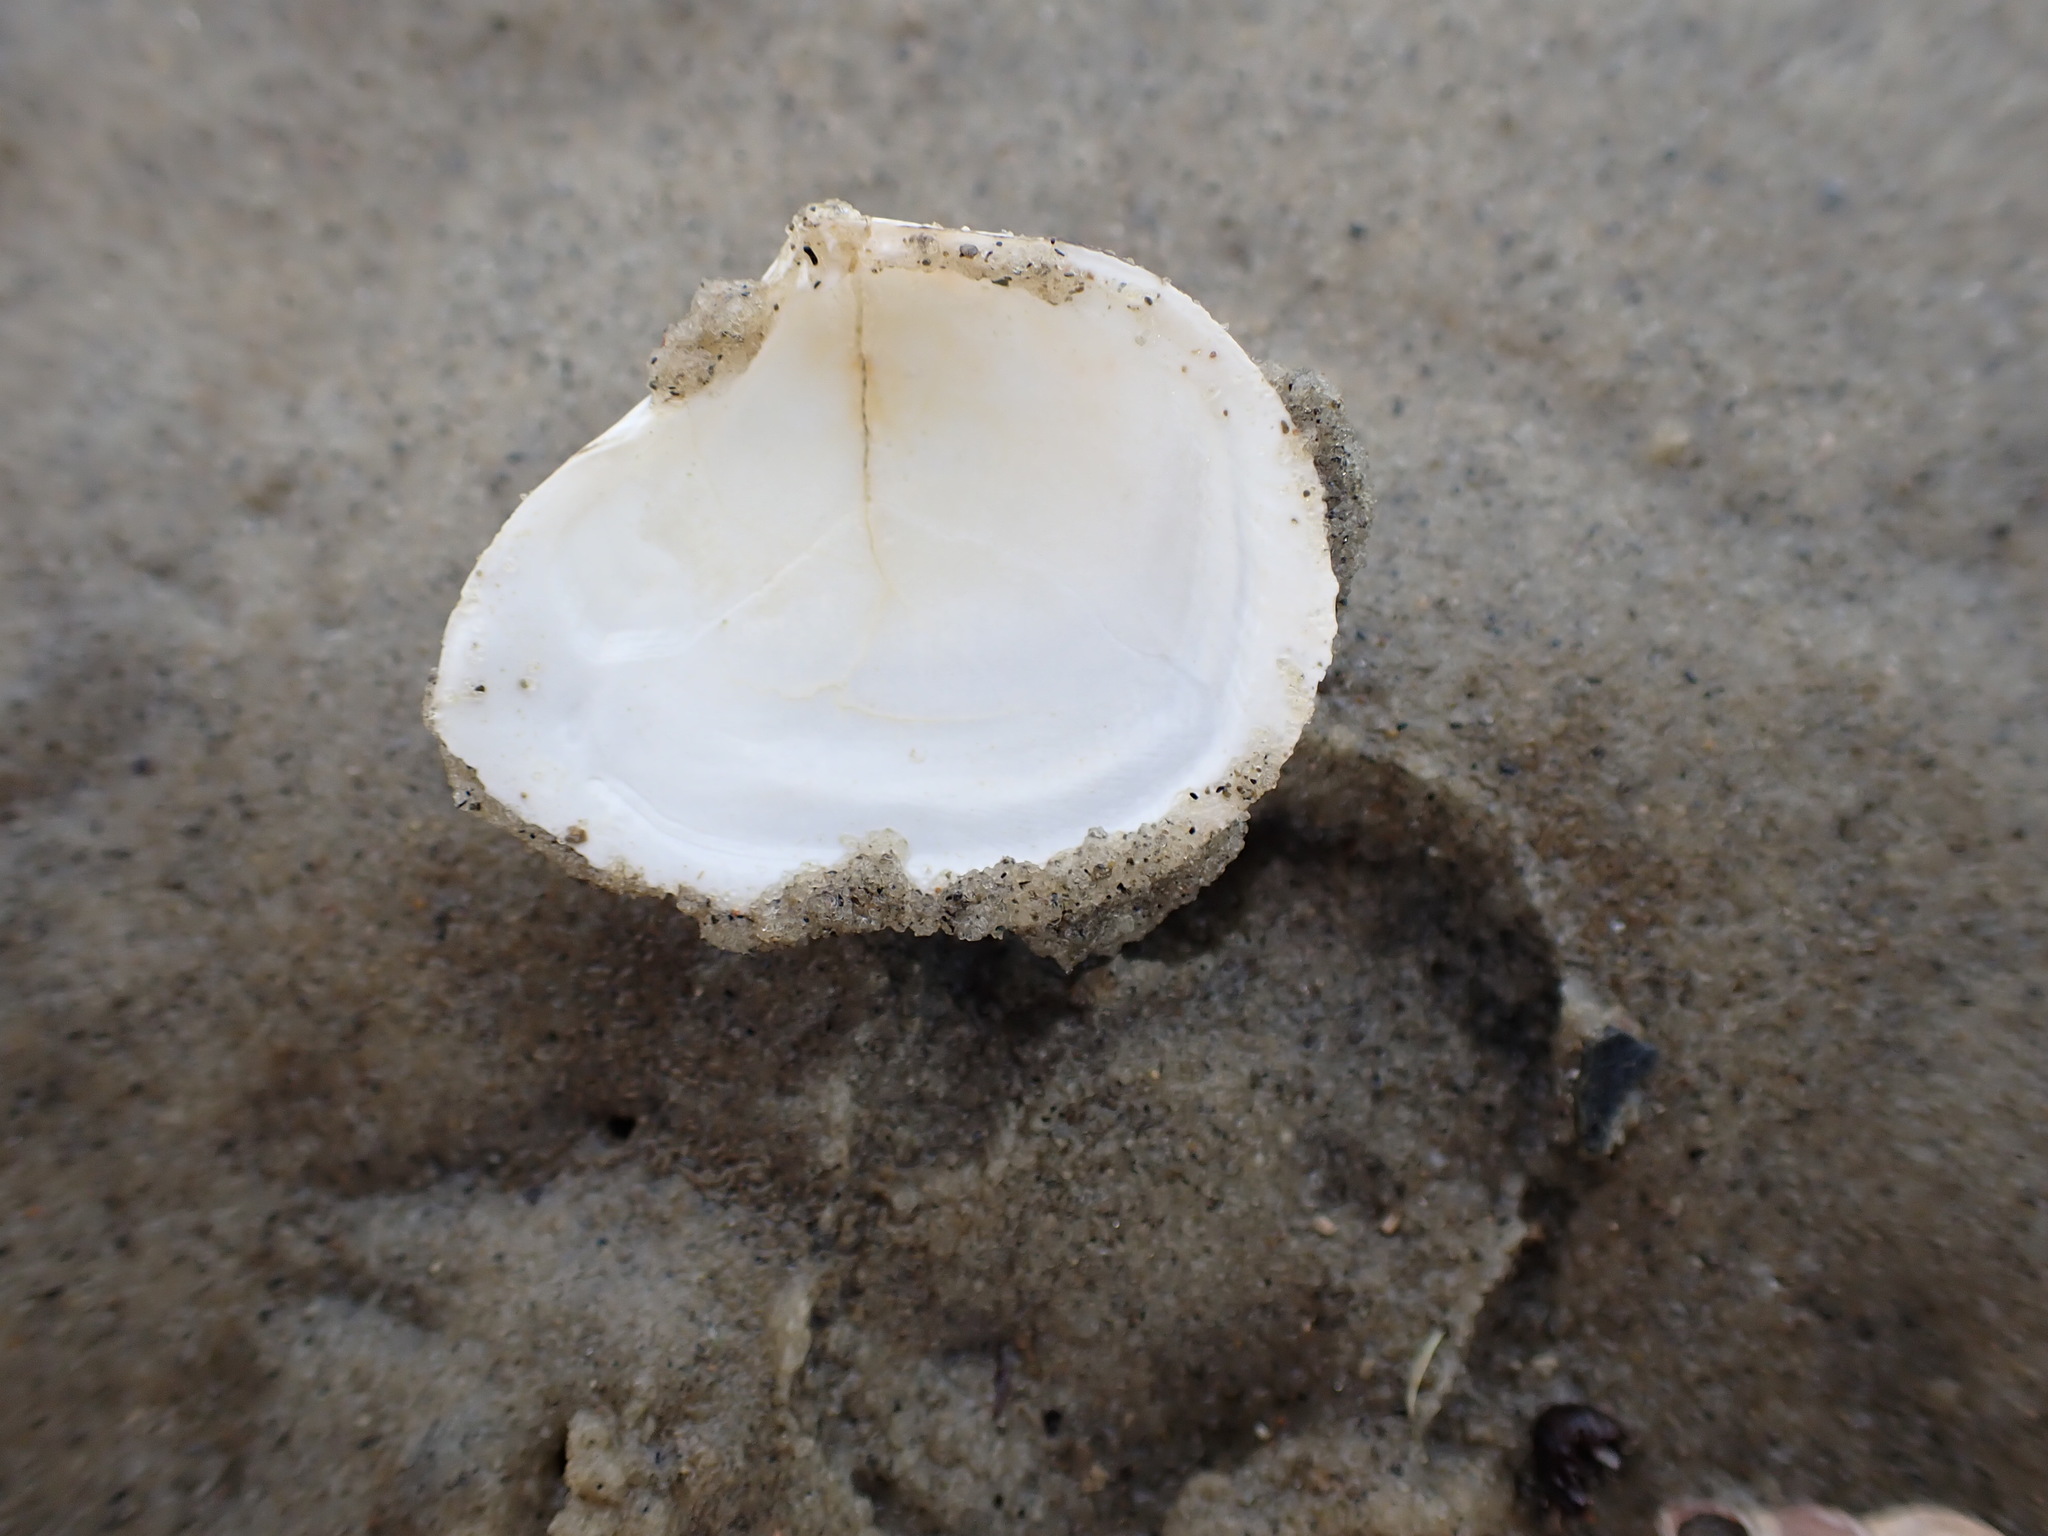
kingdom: Animalia
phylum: Mollusca
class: Bivalvia
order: Cardiida
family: Tellinidae
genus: Macomona
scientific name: Macomona liliana
